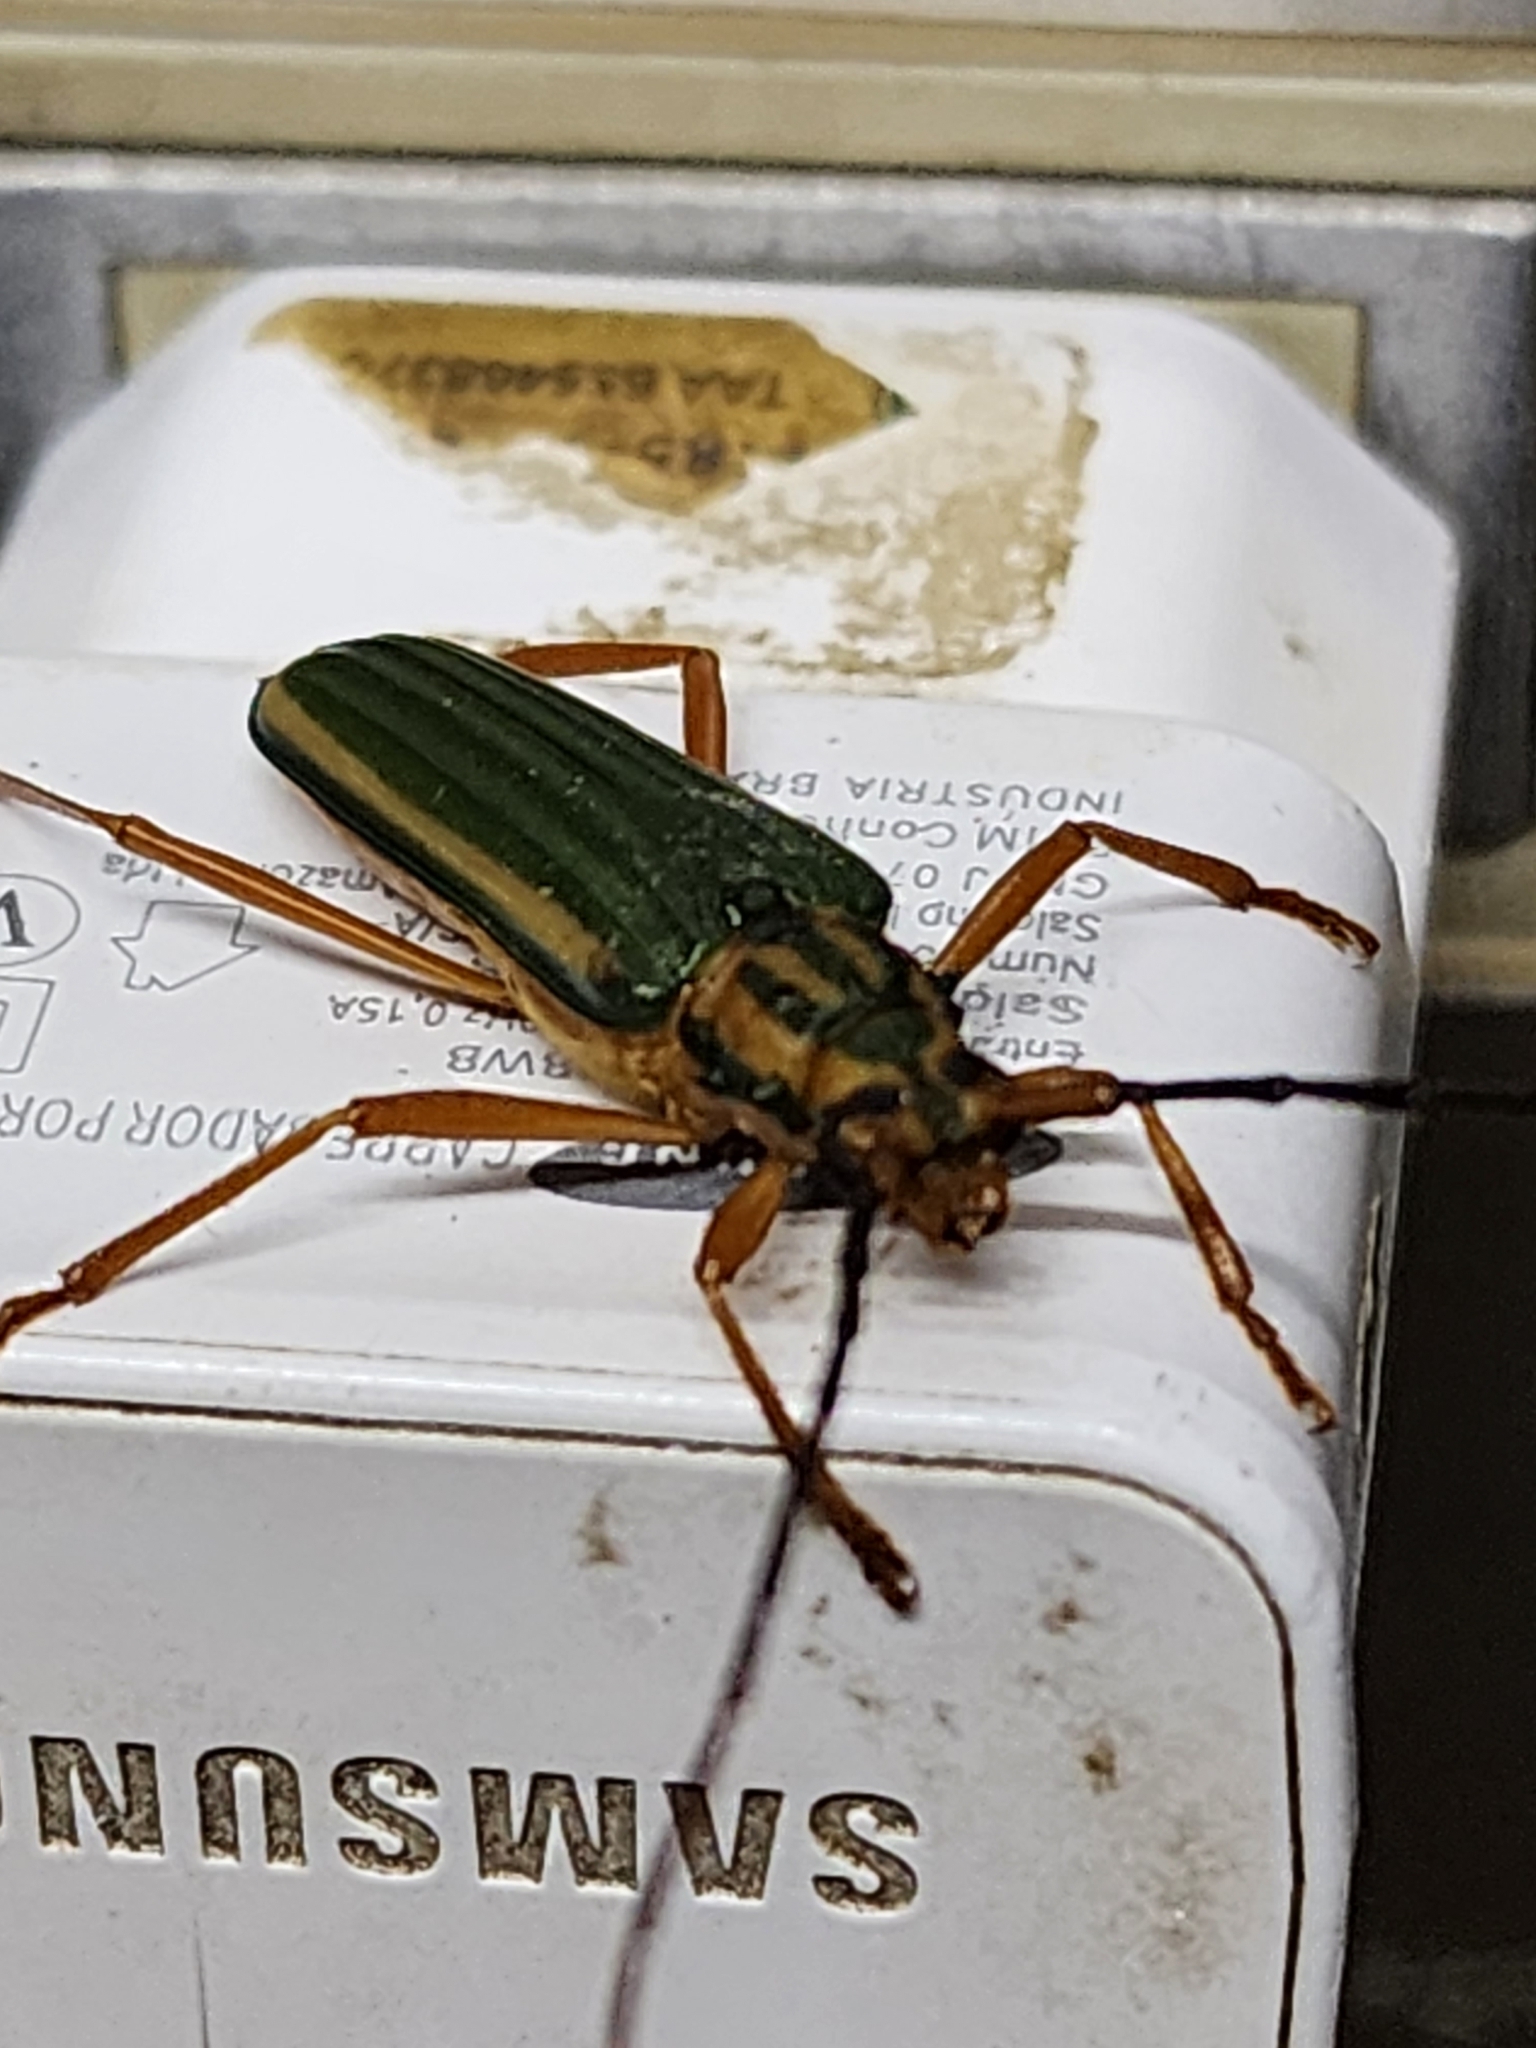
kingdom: Animalia
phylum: Arthropoda
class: Insecta
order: Coleoptera
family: Cerambycidae
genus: Chlorida
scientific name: Chlorida festiva
